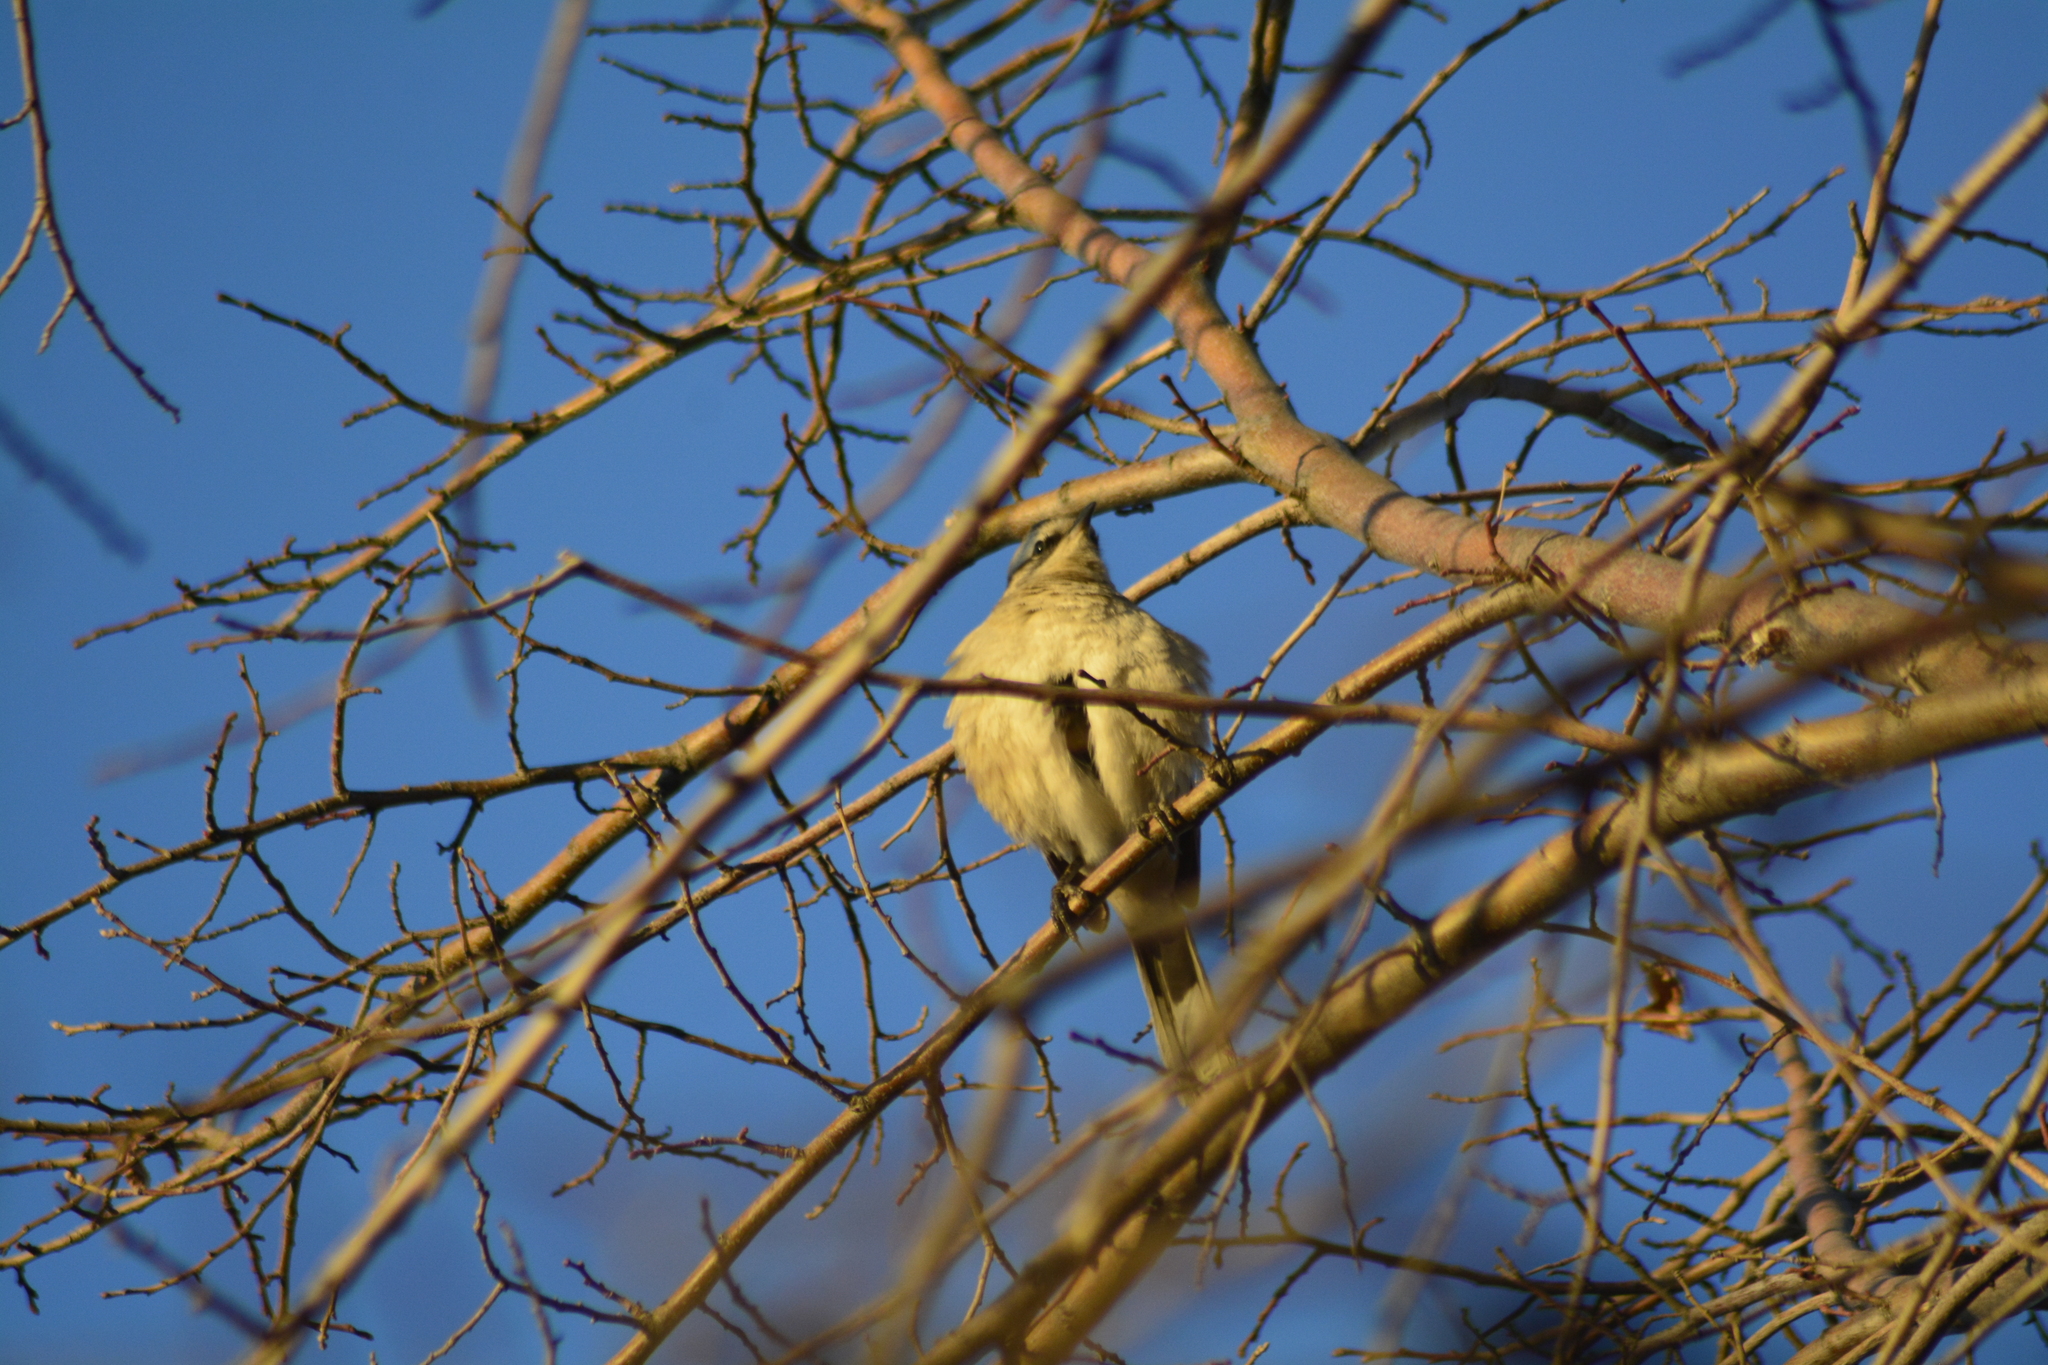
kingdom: Animalia
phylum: Chordata
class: Aves
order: Passeriformes
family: Mimidae
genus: Mimus
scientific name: Mimus saturninus
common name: Chalk-browed mockingbird
